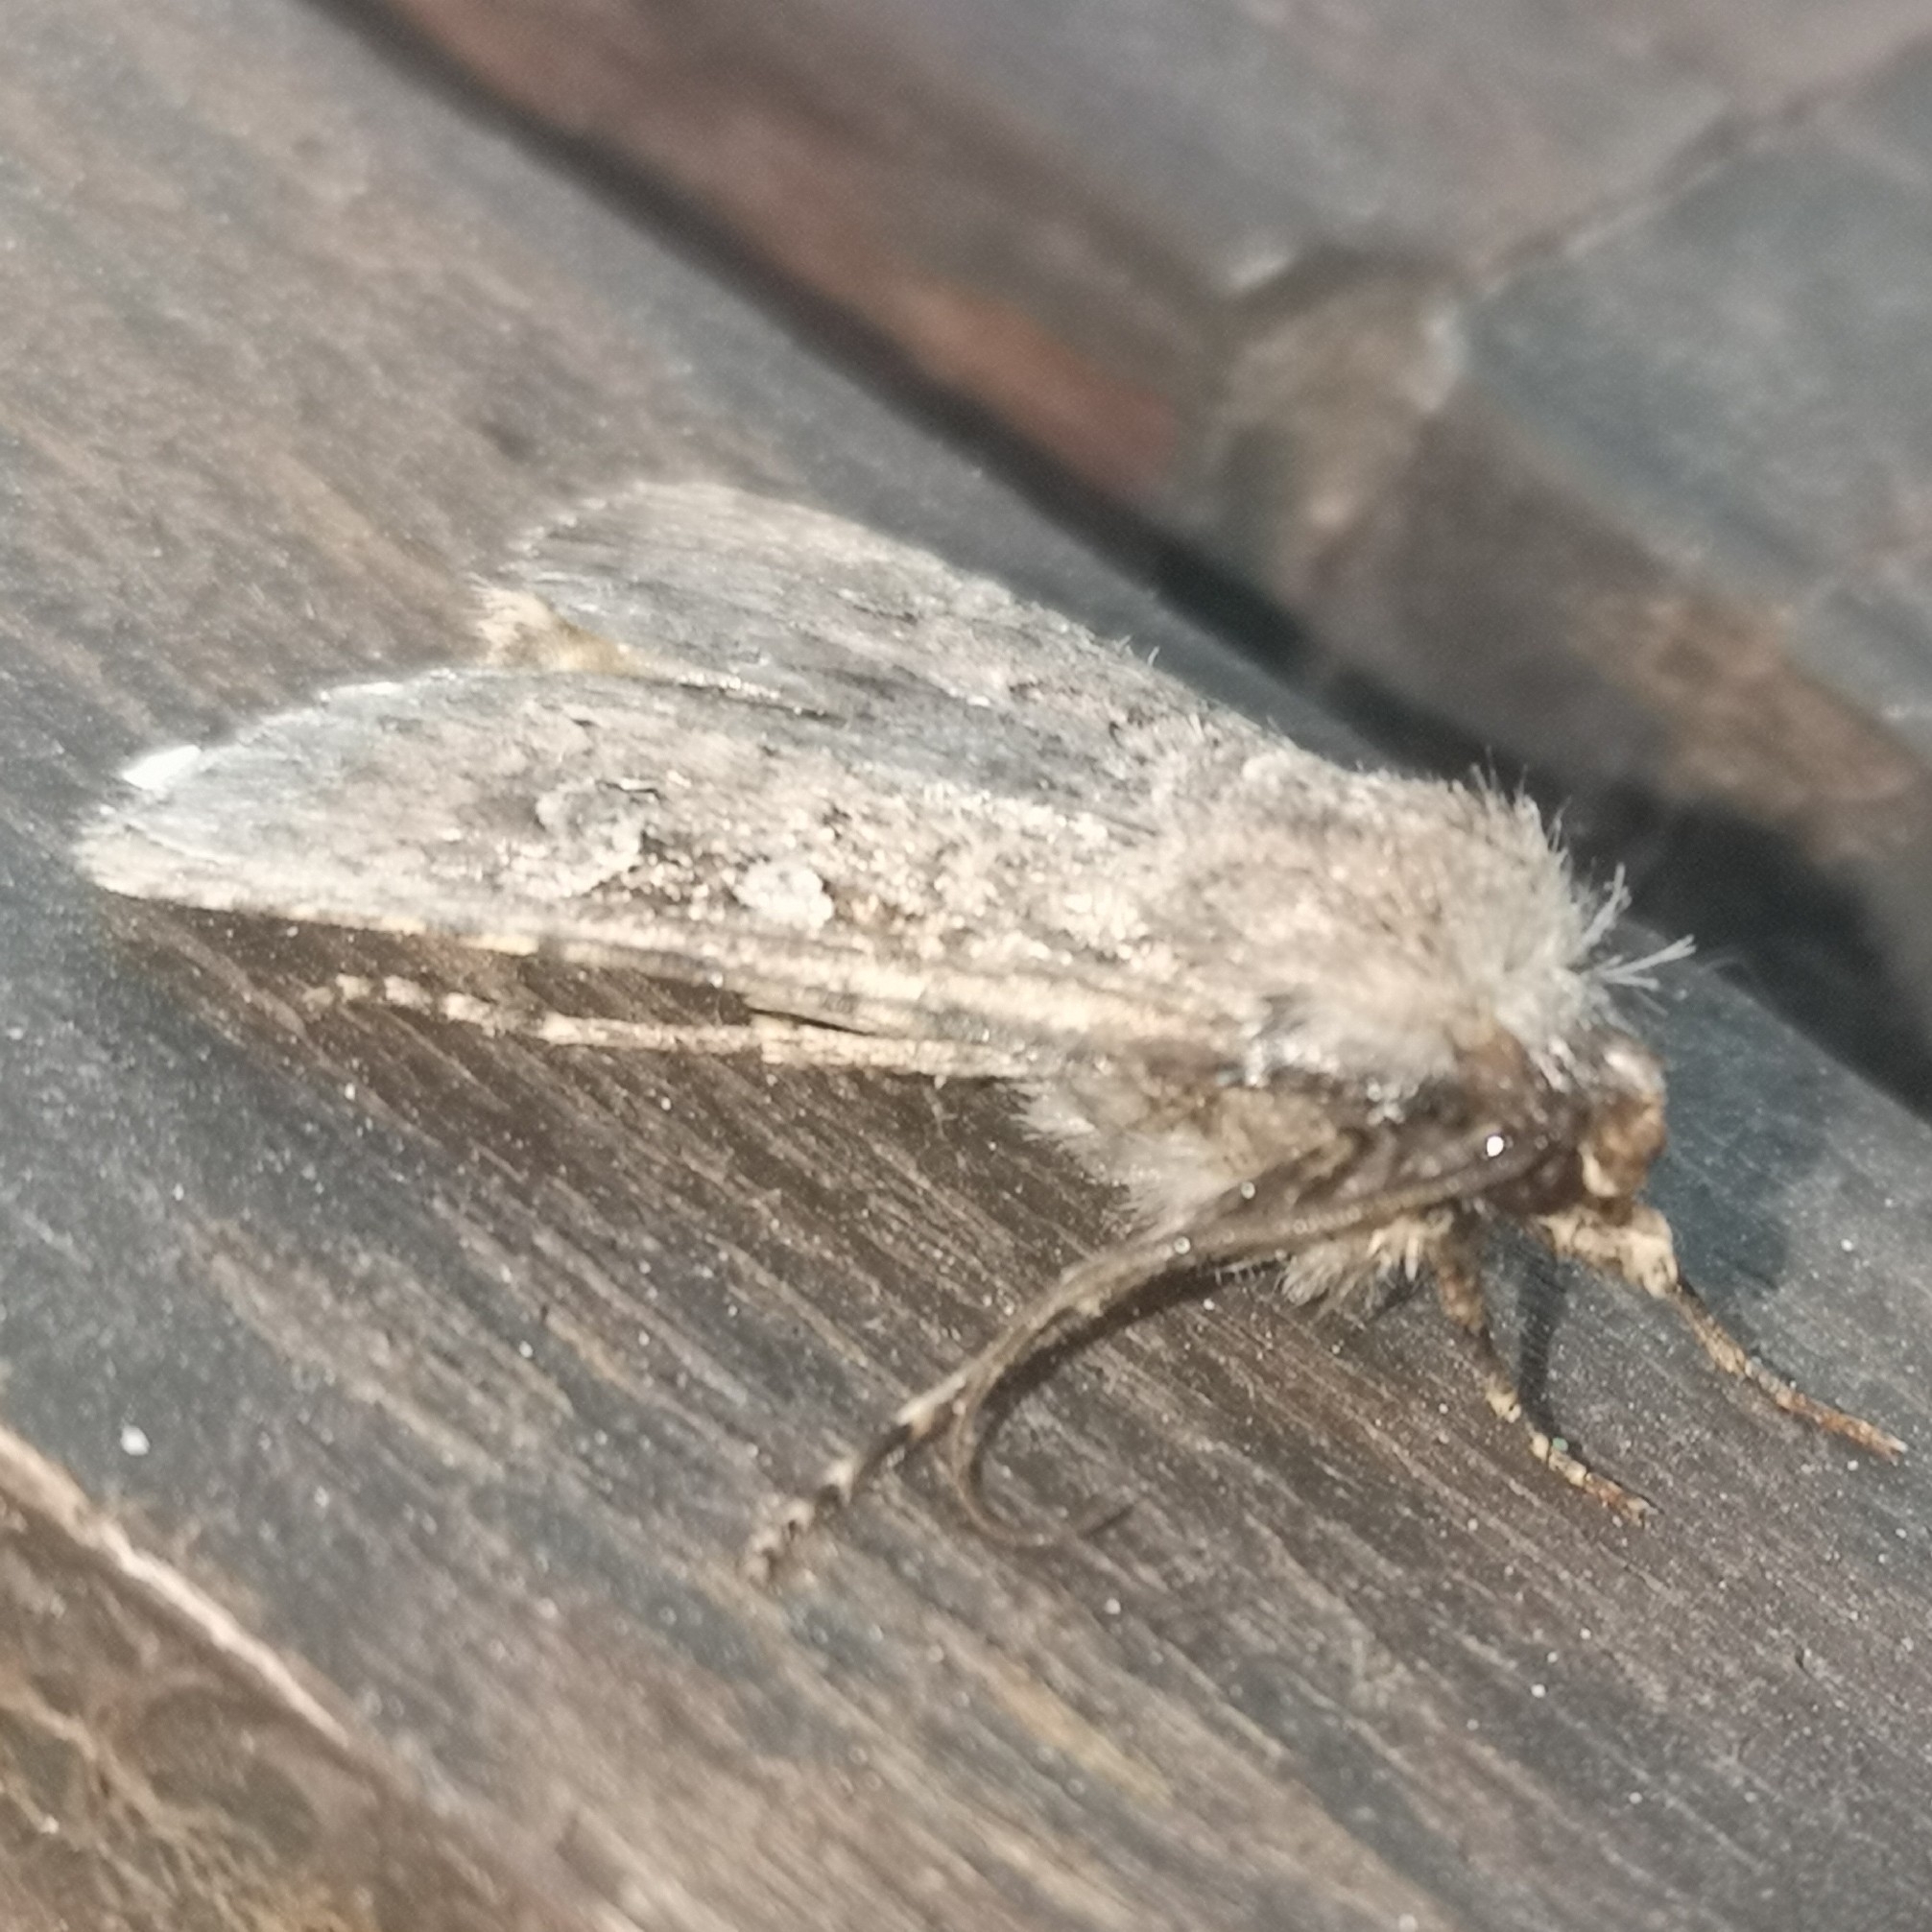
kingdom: Animalia
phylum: Arthropoda
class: Insecta
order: Lepidoptera
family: Noctuidae
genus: Euxoa
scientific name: Euxoa canariensis
